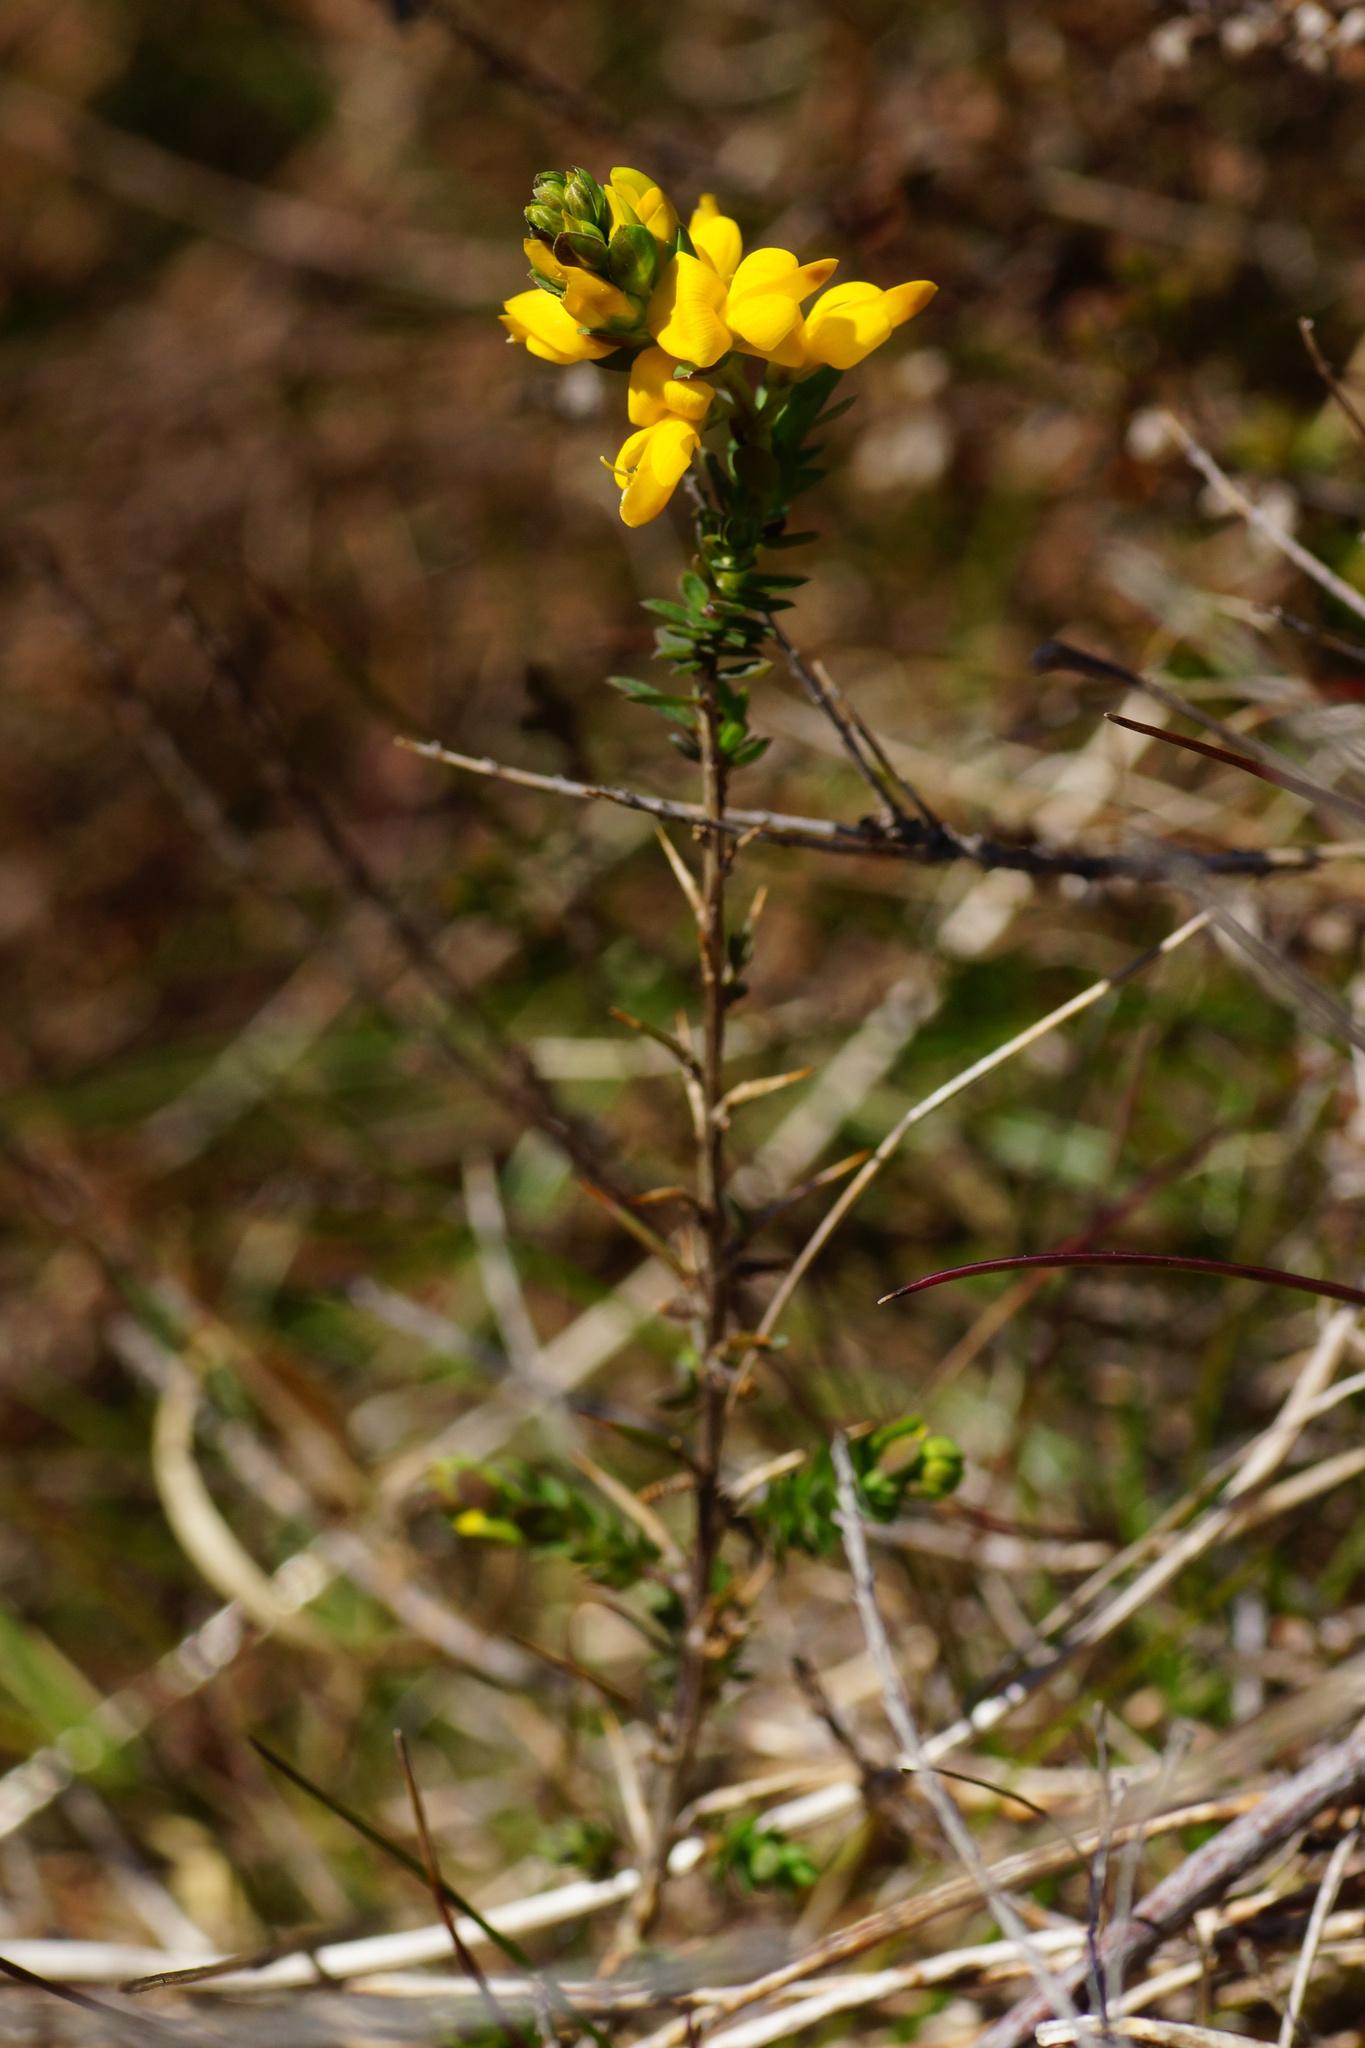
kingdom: Plantae
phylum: Tracheophyta
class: Magnoliopsida
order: Fabales
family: Fabaceae
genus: Genista
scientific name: Genista anglica
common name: Petty whin
